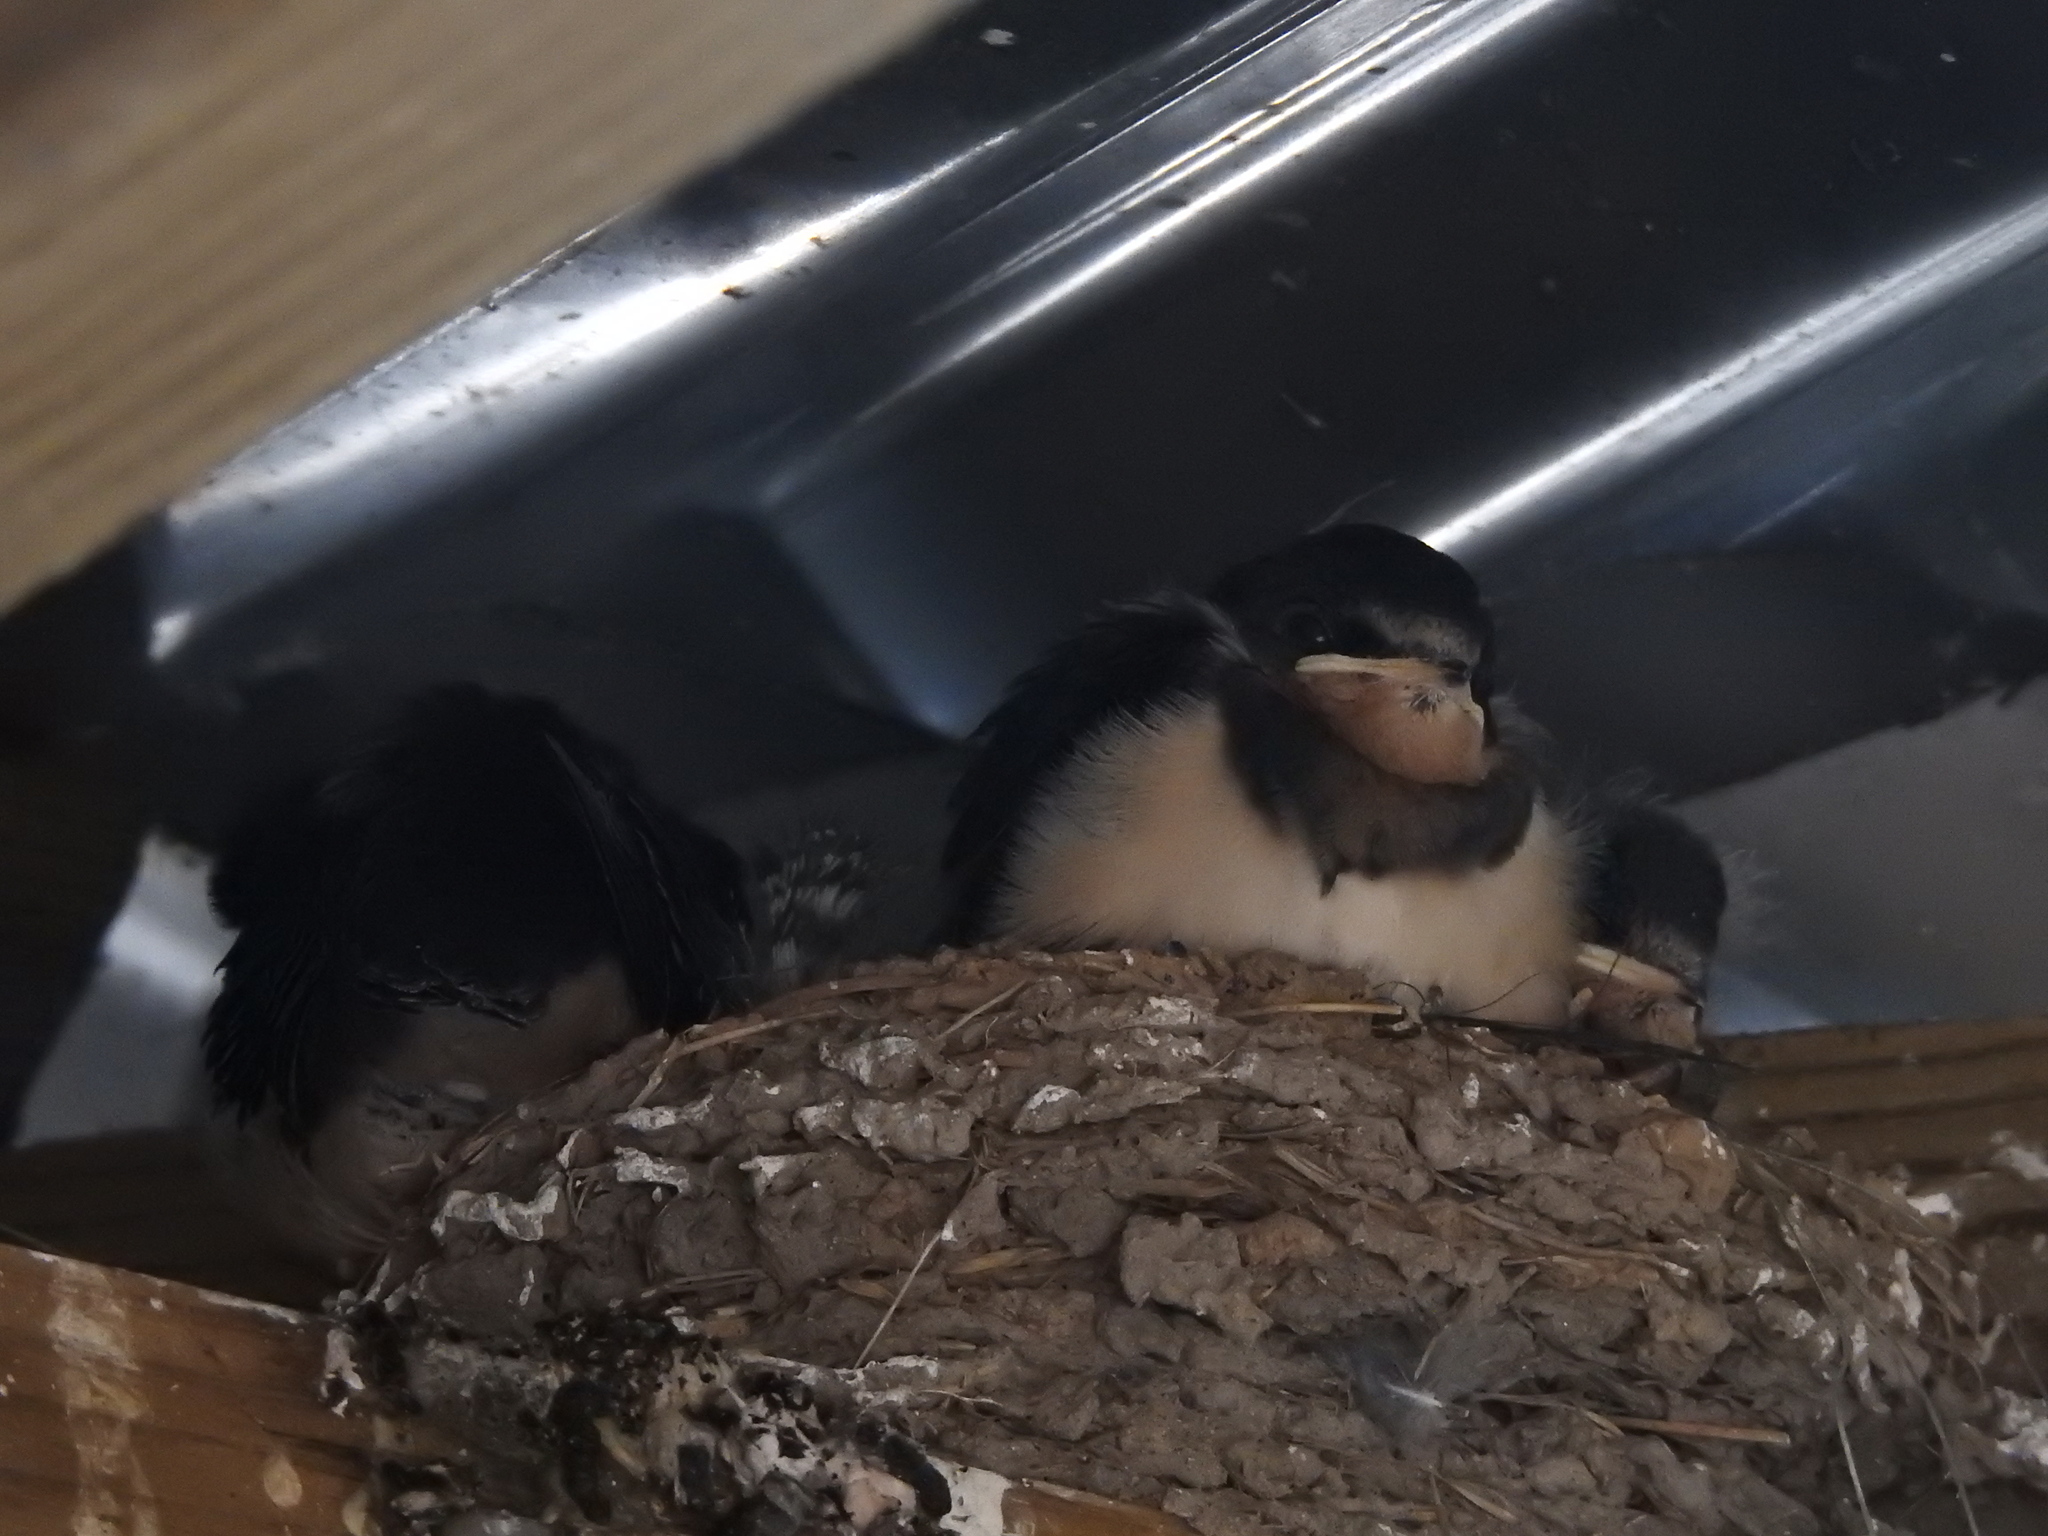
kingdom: Animalia
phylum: Chordata
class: Aves
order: Passeriformes
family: Hirundinidae
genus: Hirundo
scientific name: Hirundo rustica
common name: Barn swallow
